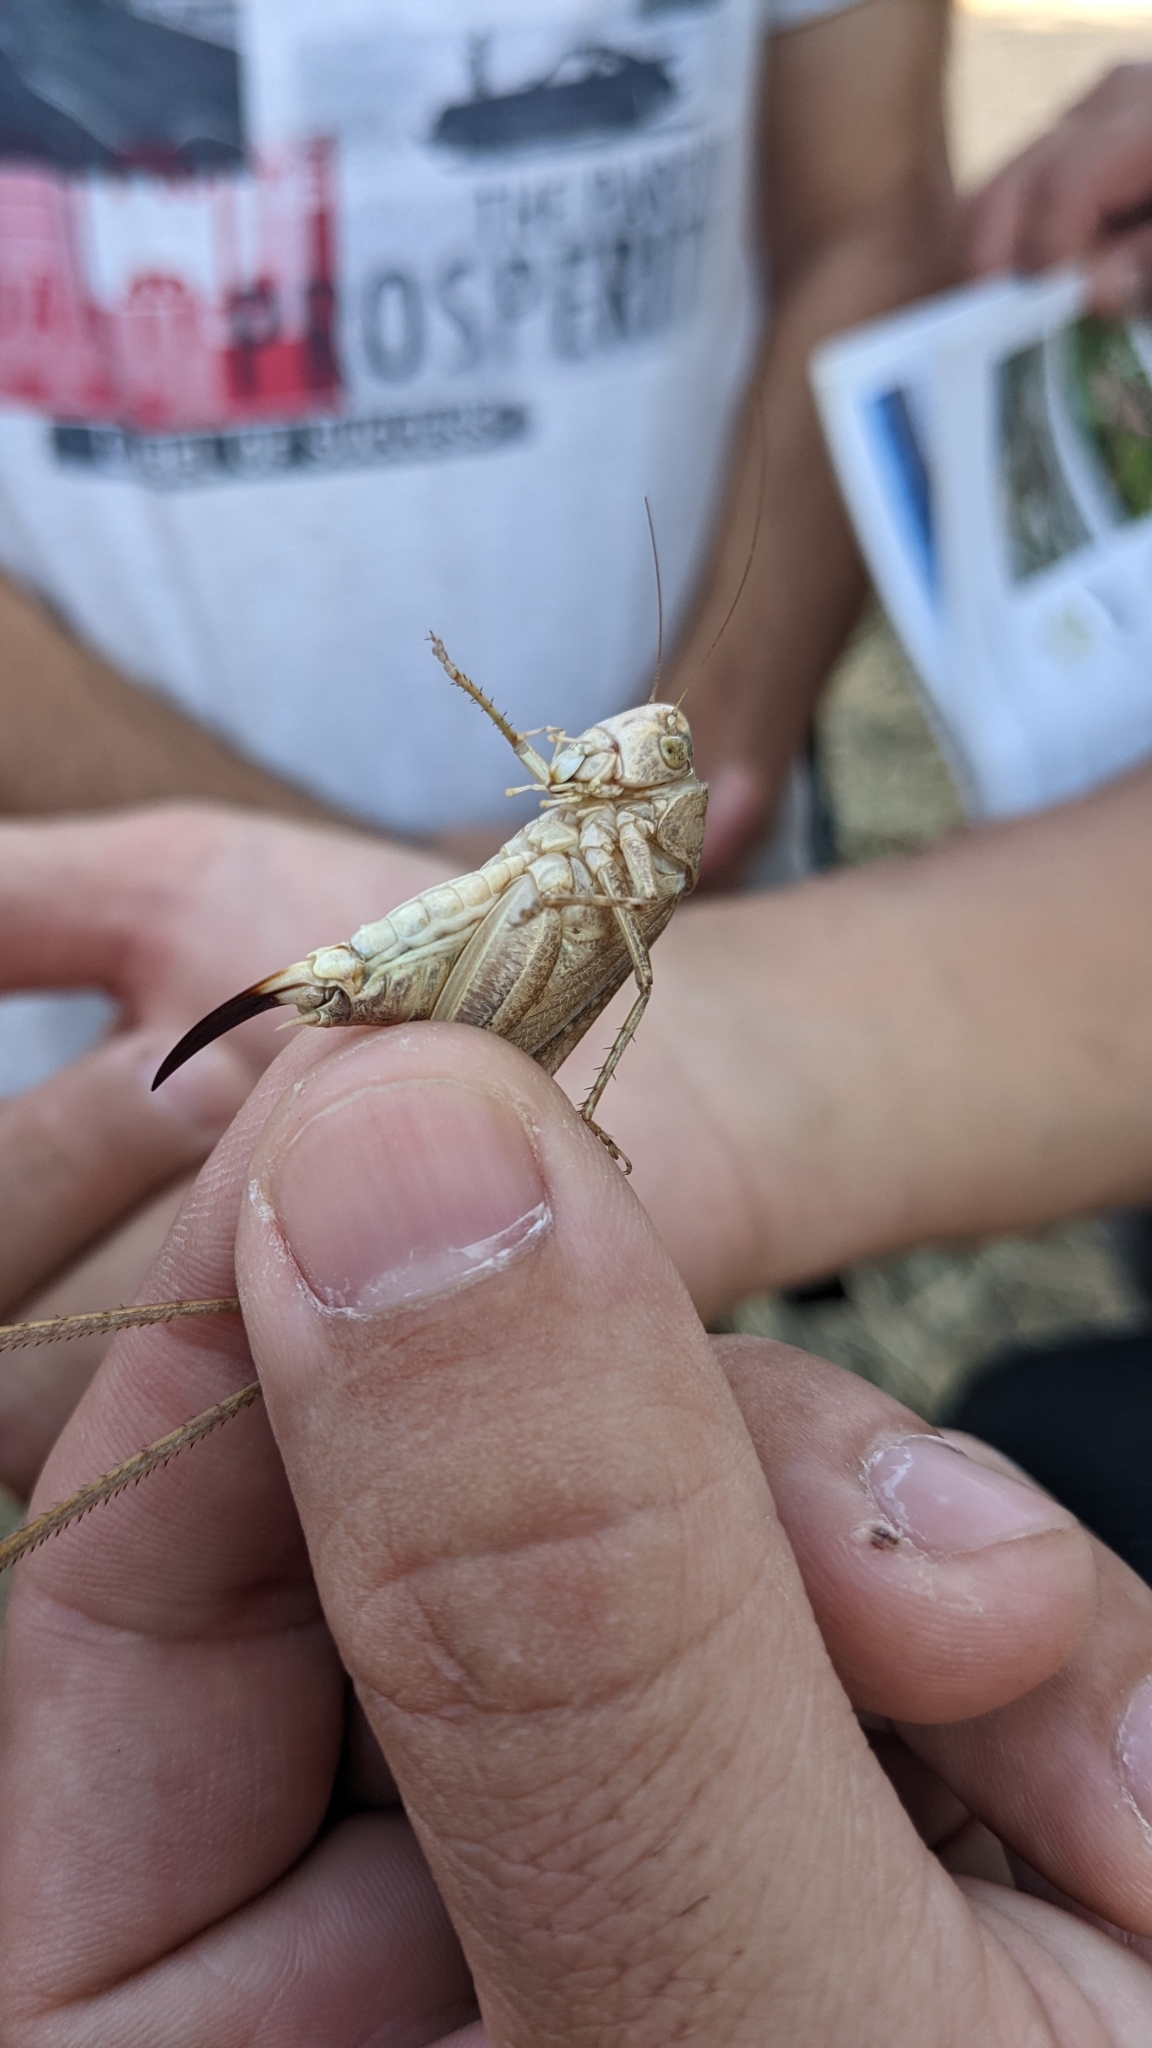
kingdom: Animalia
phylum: Arthropoda
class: Insecta
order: Orthoptera
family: Tettigoniidae
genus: Platycleis
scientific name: Platycleis sabulosa
